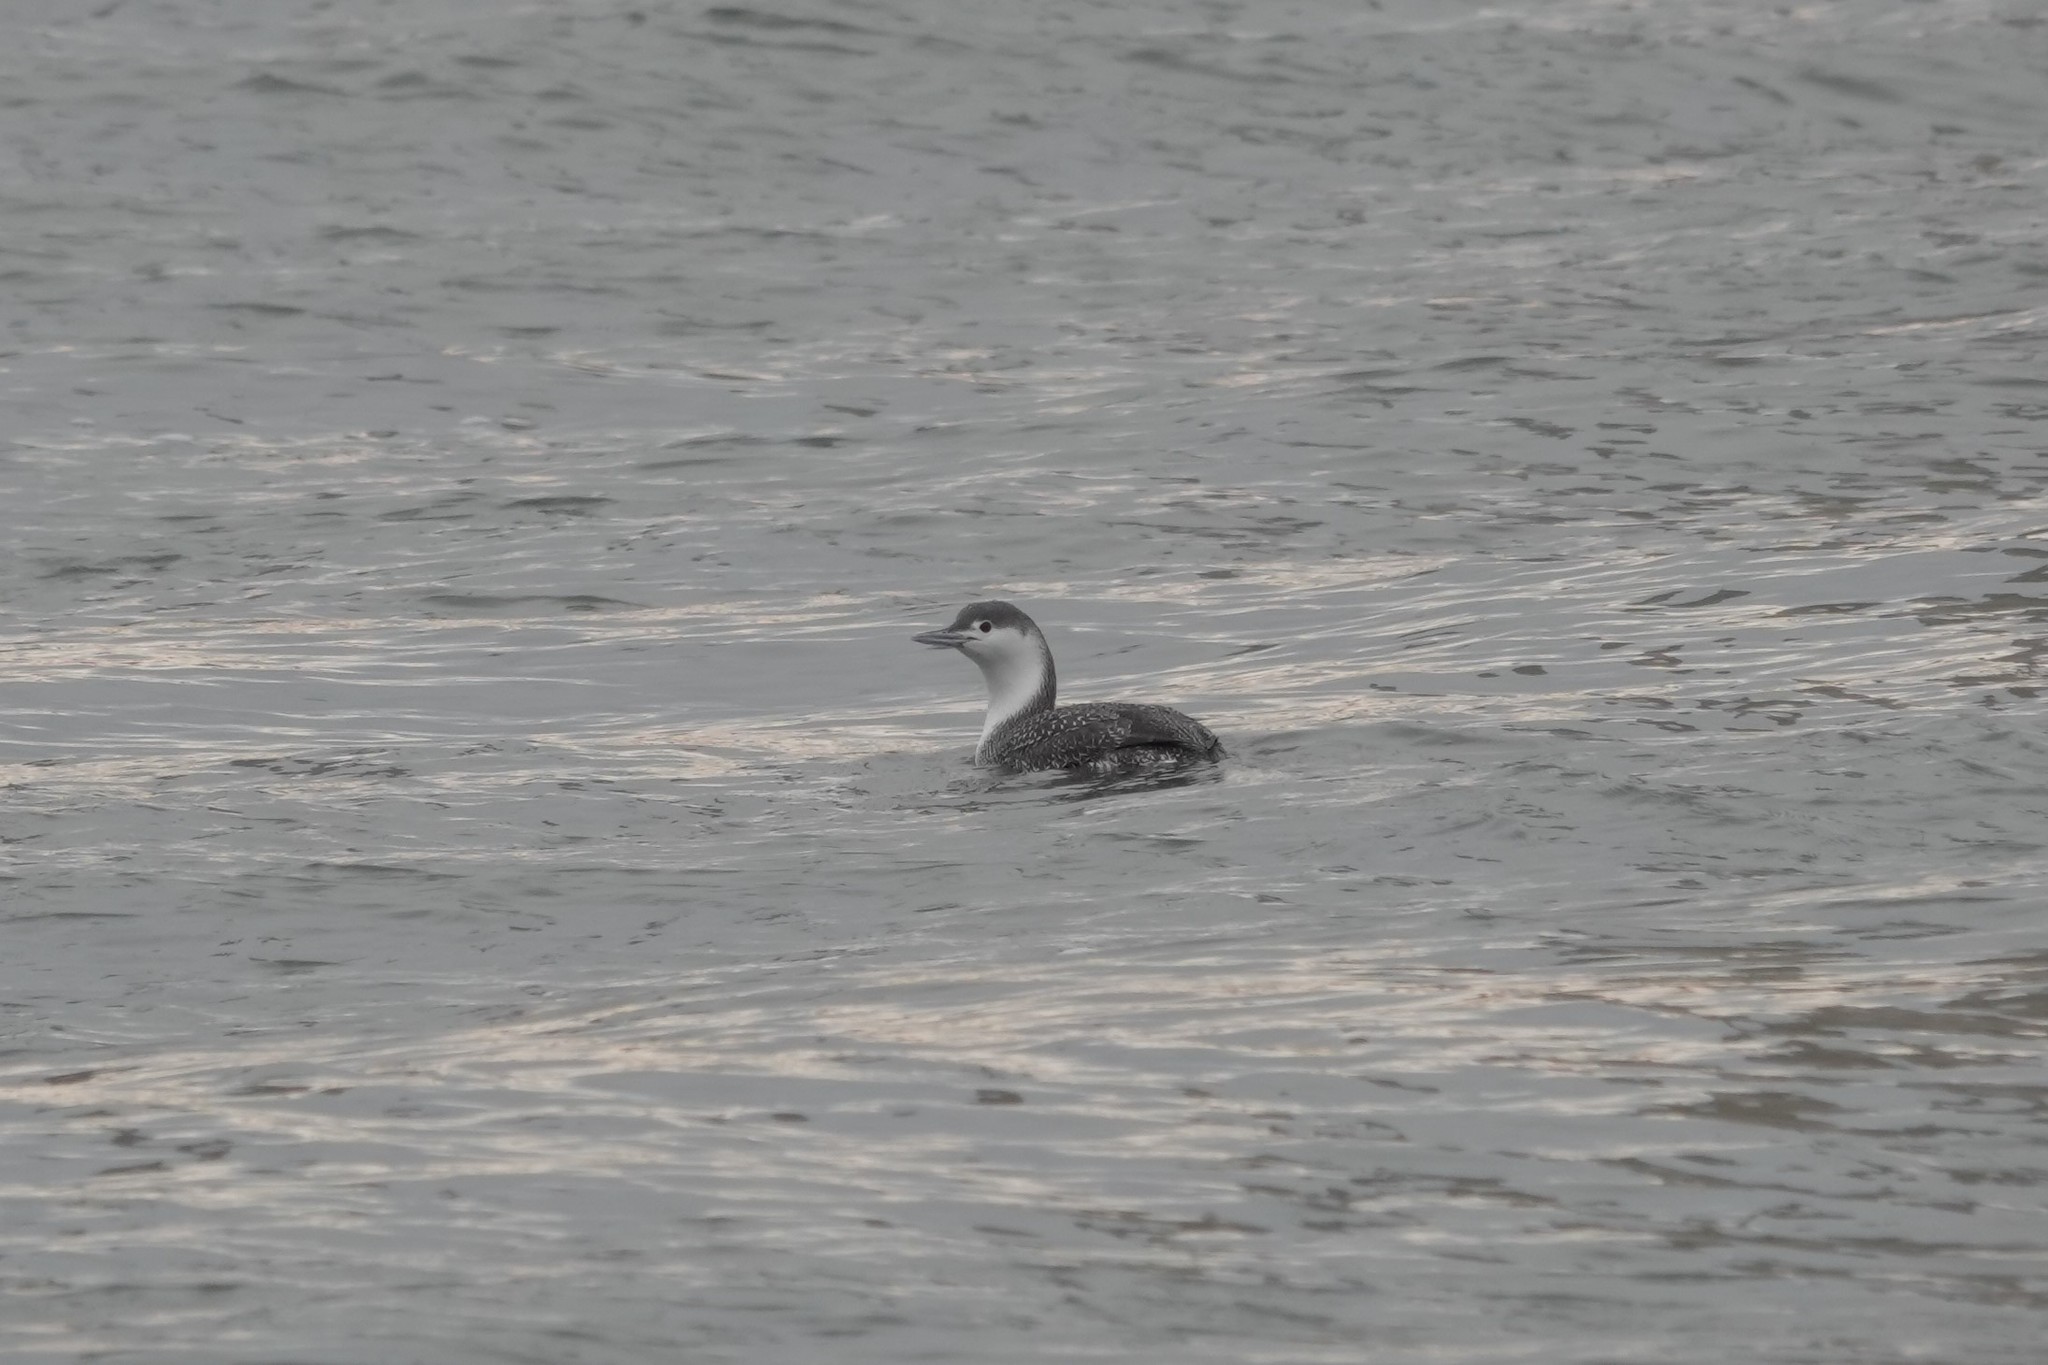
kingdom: Animalia
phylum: Chordata
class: Aves
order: Gaviiformes
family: Gaviidae
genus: Gavia
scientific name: Gavia stellata
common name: Red-throated loon
